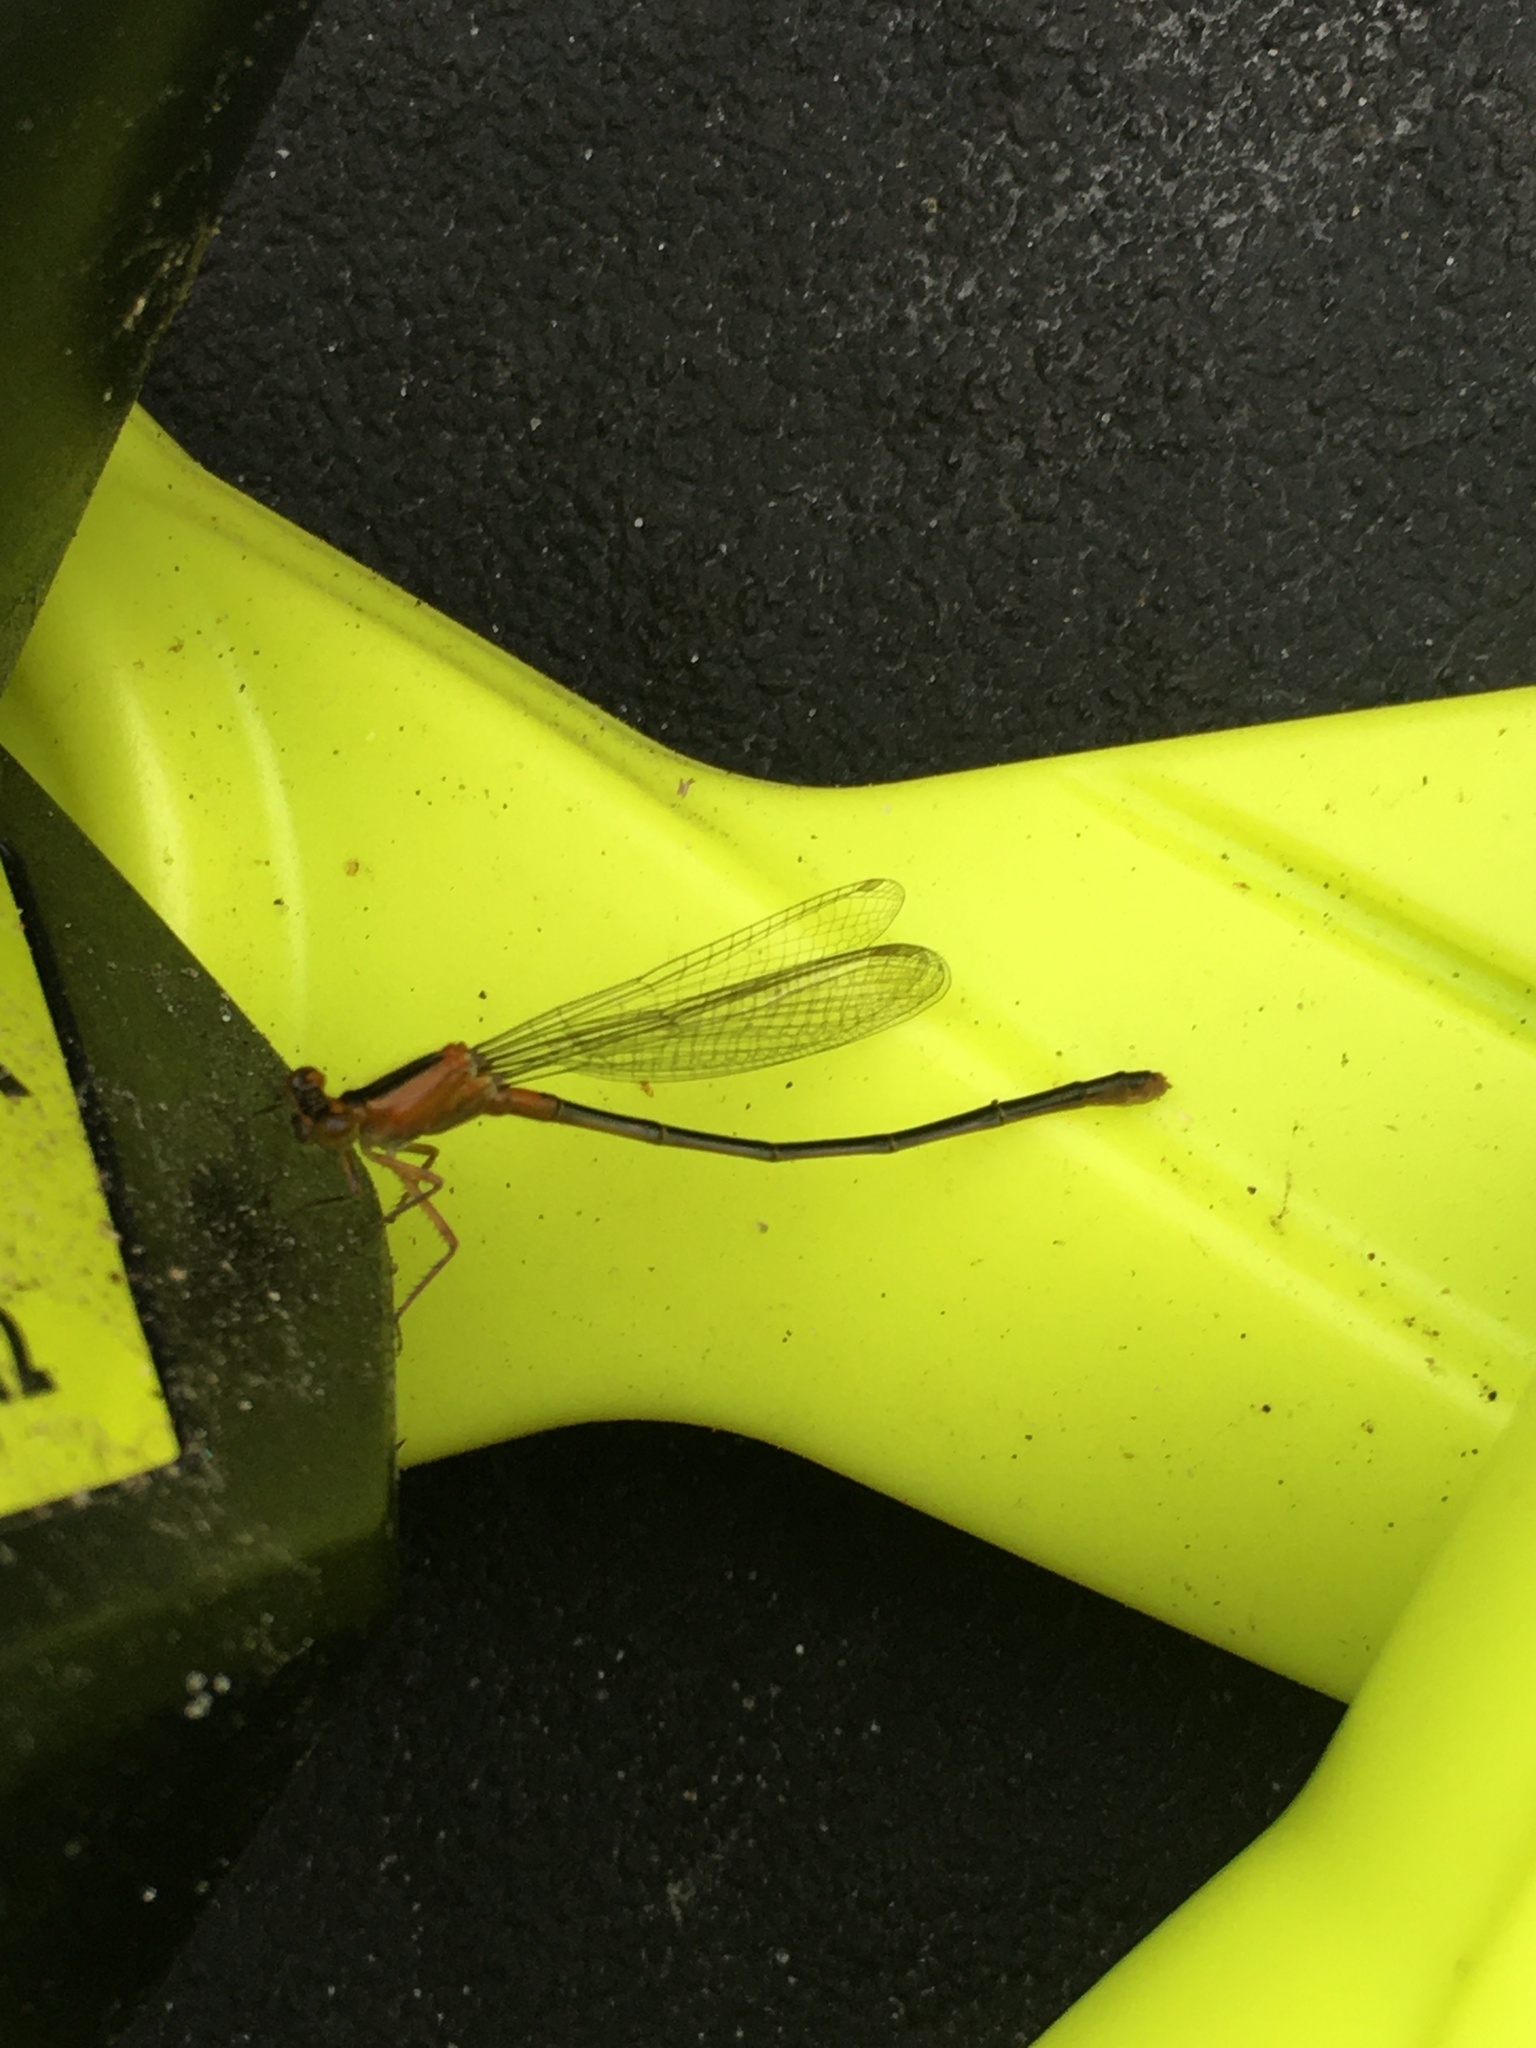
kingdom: Animalia
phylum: Arthropoda
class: Insecta
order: Odonata
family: Coenagrionidae
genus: Ischnura
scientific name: Ischnura ramburii
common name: Rambur's forktail
